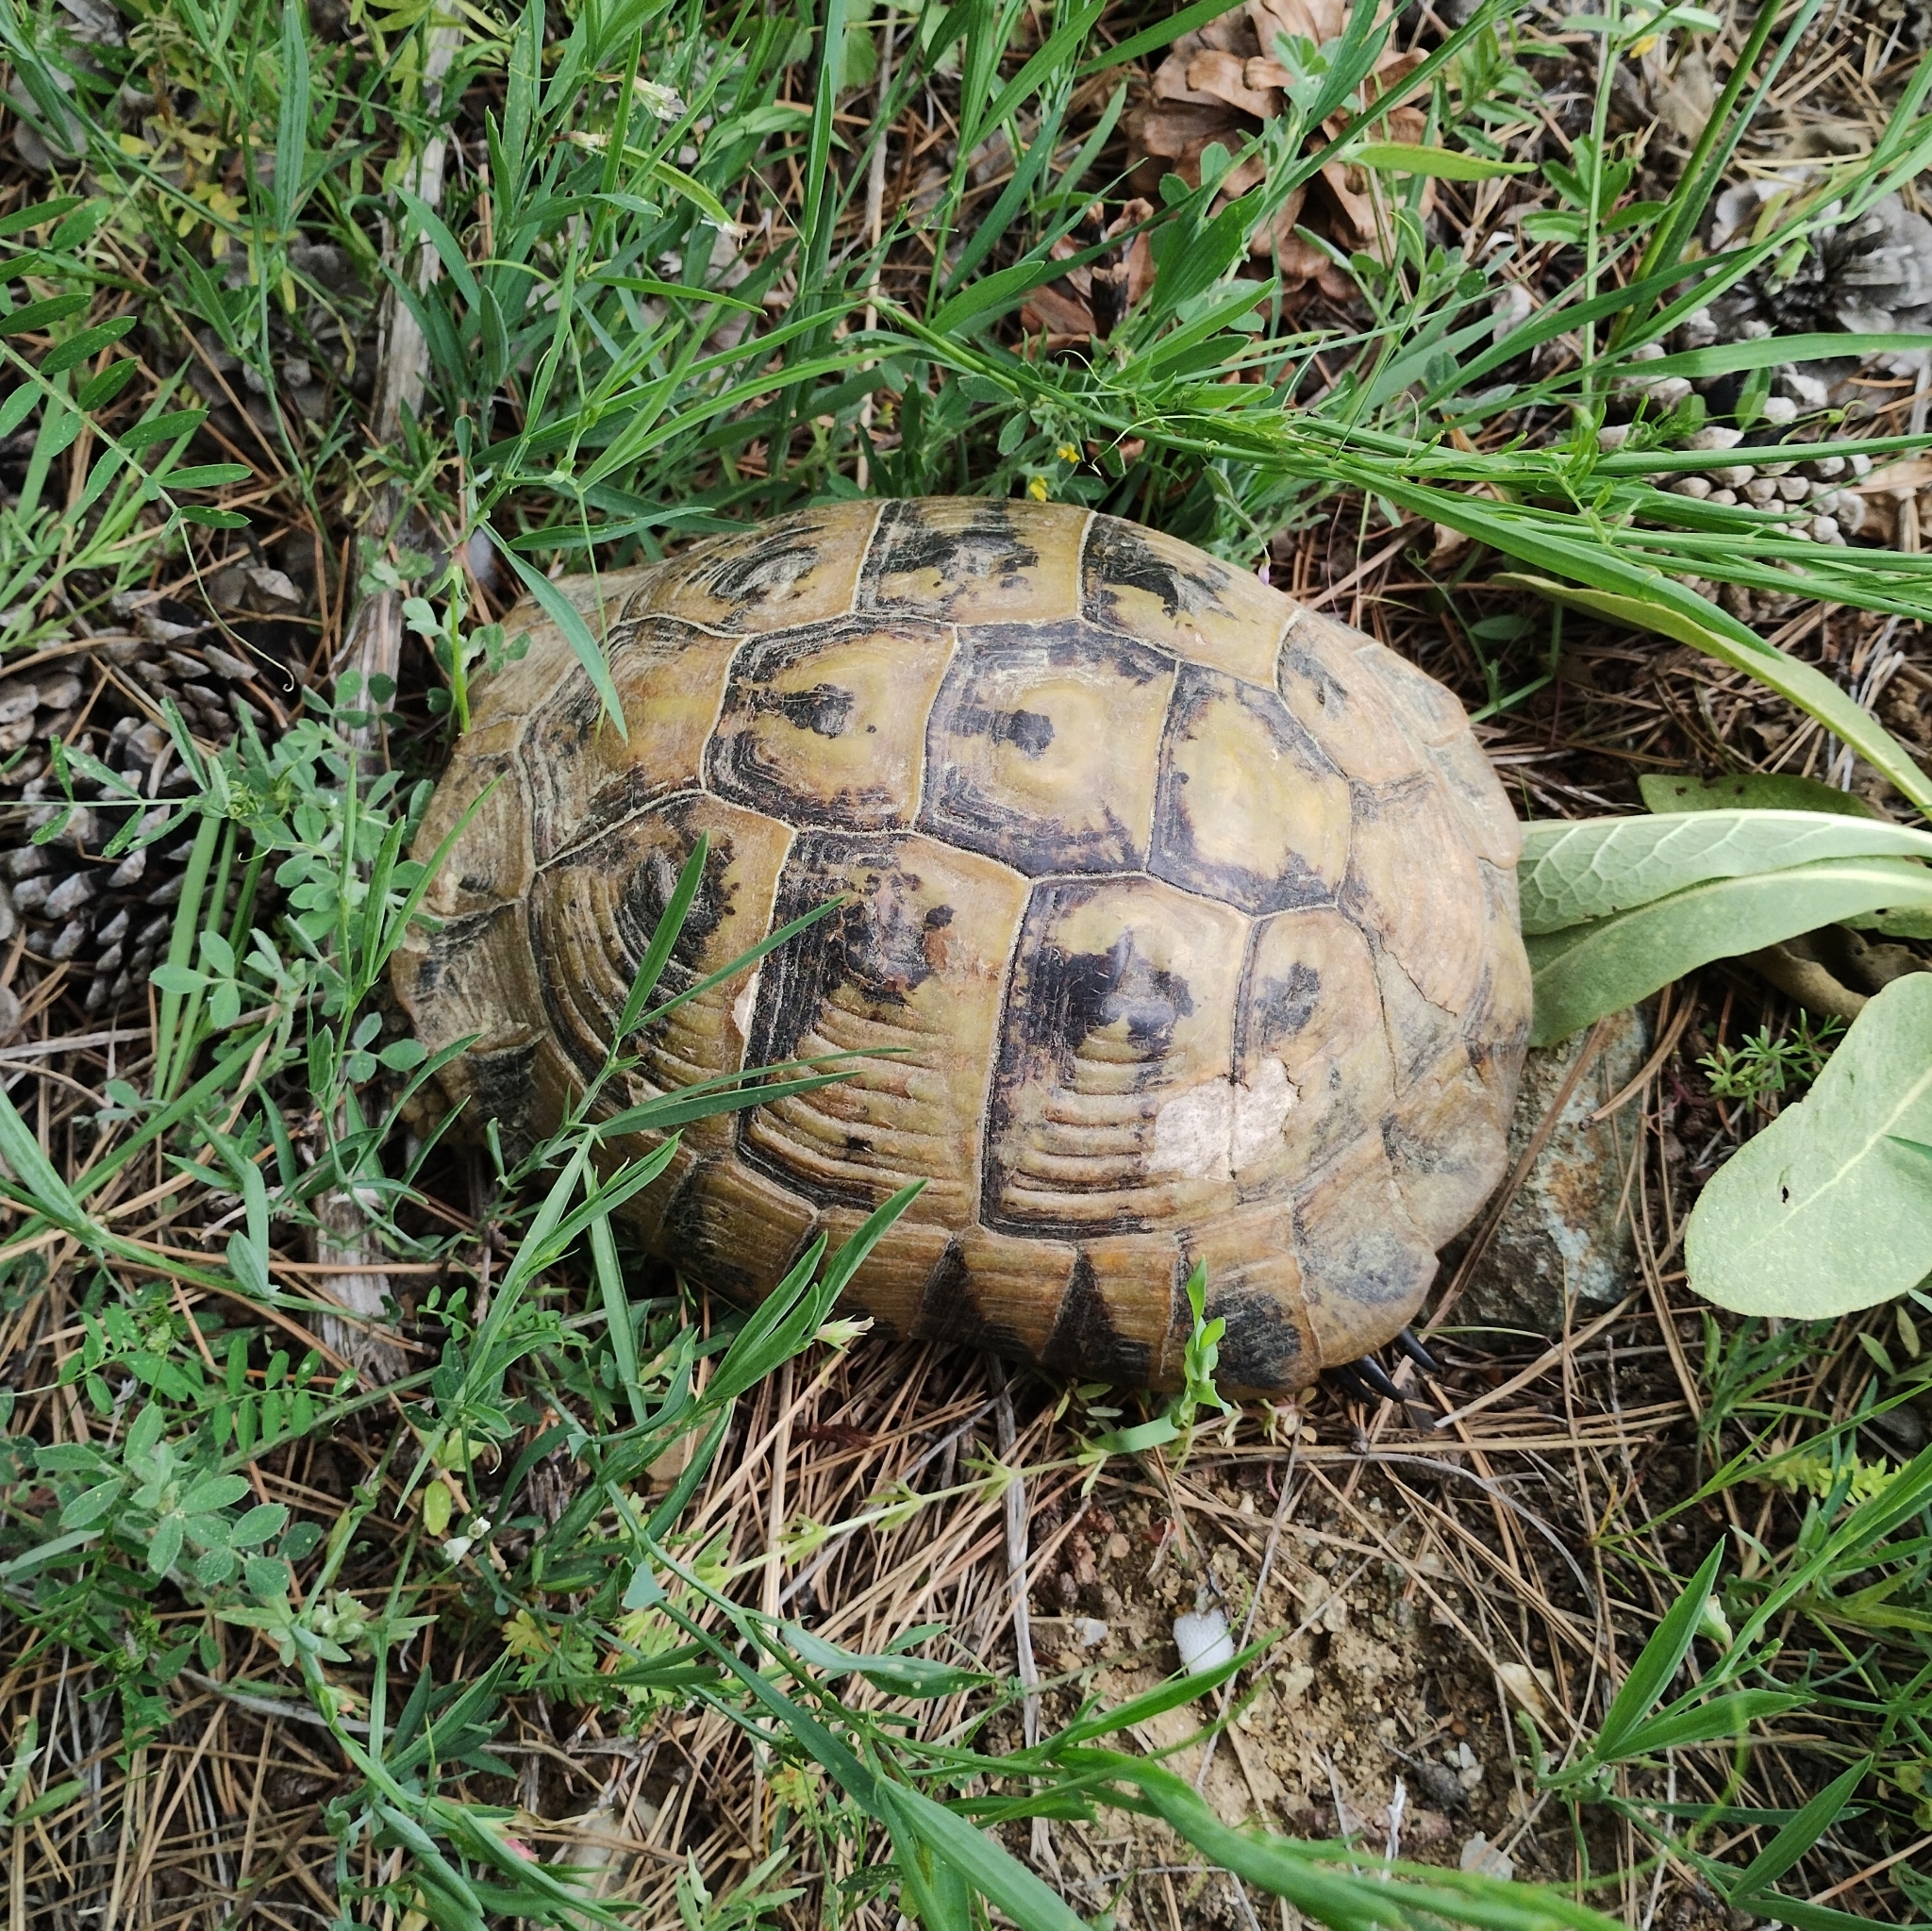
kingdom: Animalia
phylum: Chordata
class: Testudines
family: Testudinidae
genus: Testudo
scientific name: Testudo hermanni
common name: Hermann's tortoise
